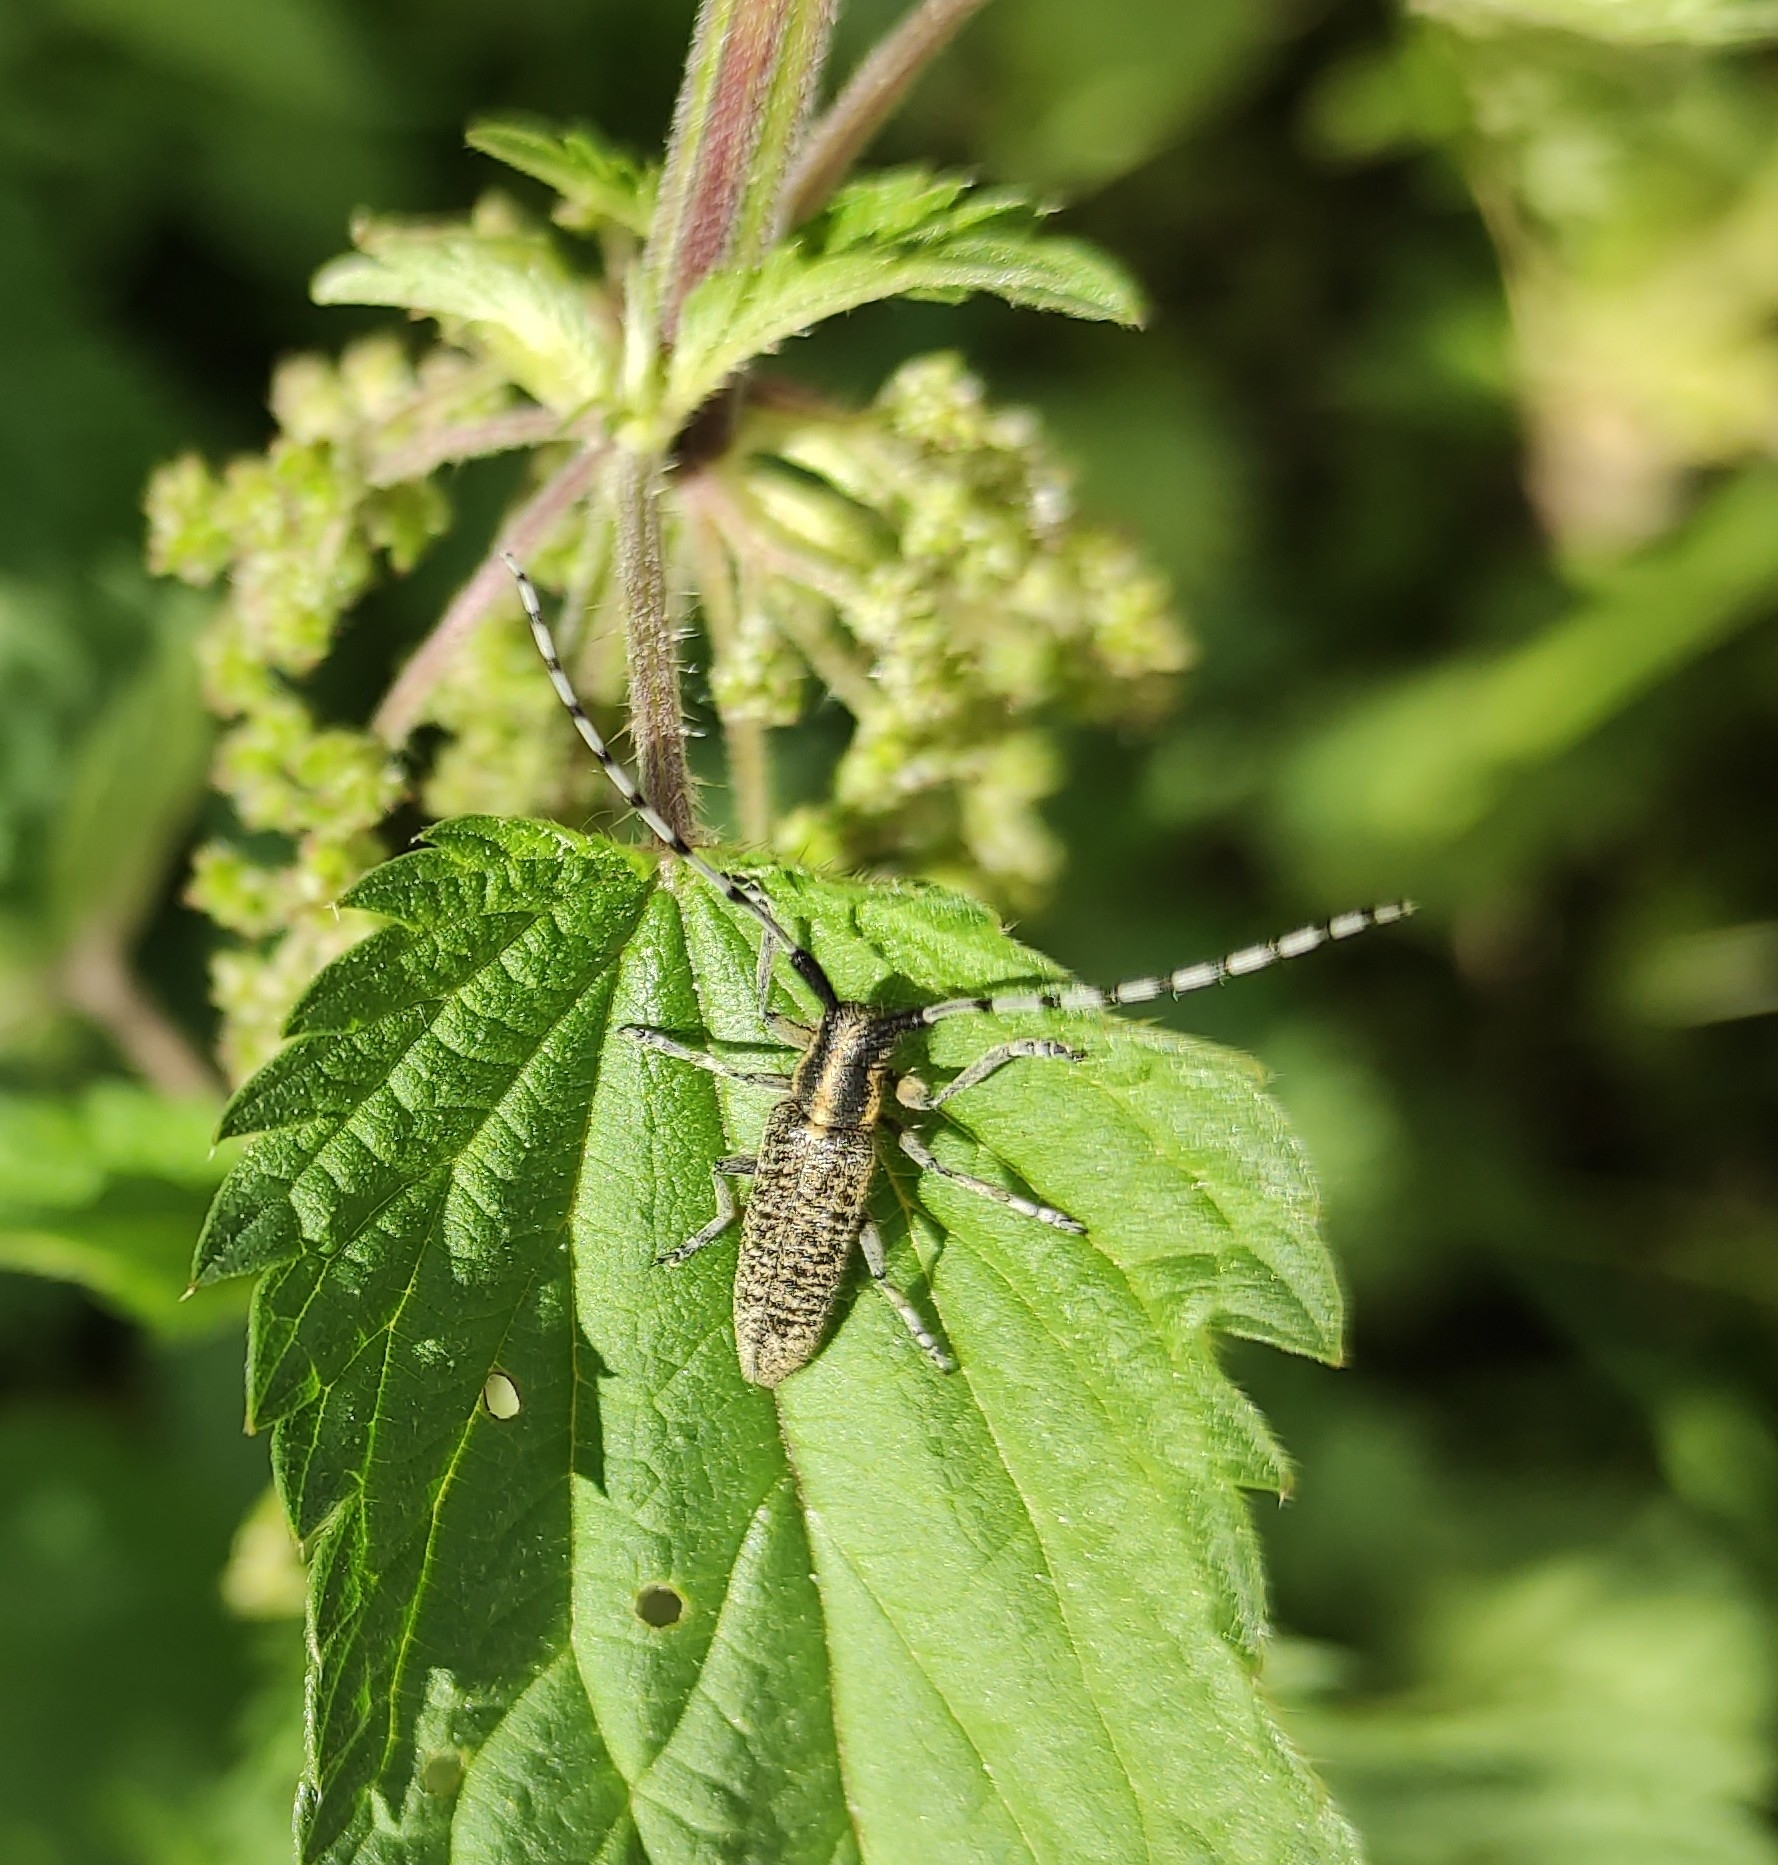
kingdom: Animalia
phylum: Arthropoda
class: Insecta
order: Coleoptera
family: Cerambycidae
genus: Agapanthia
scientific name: Agapanthia villosoviridescens
